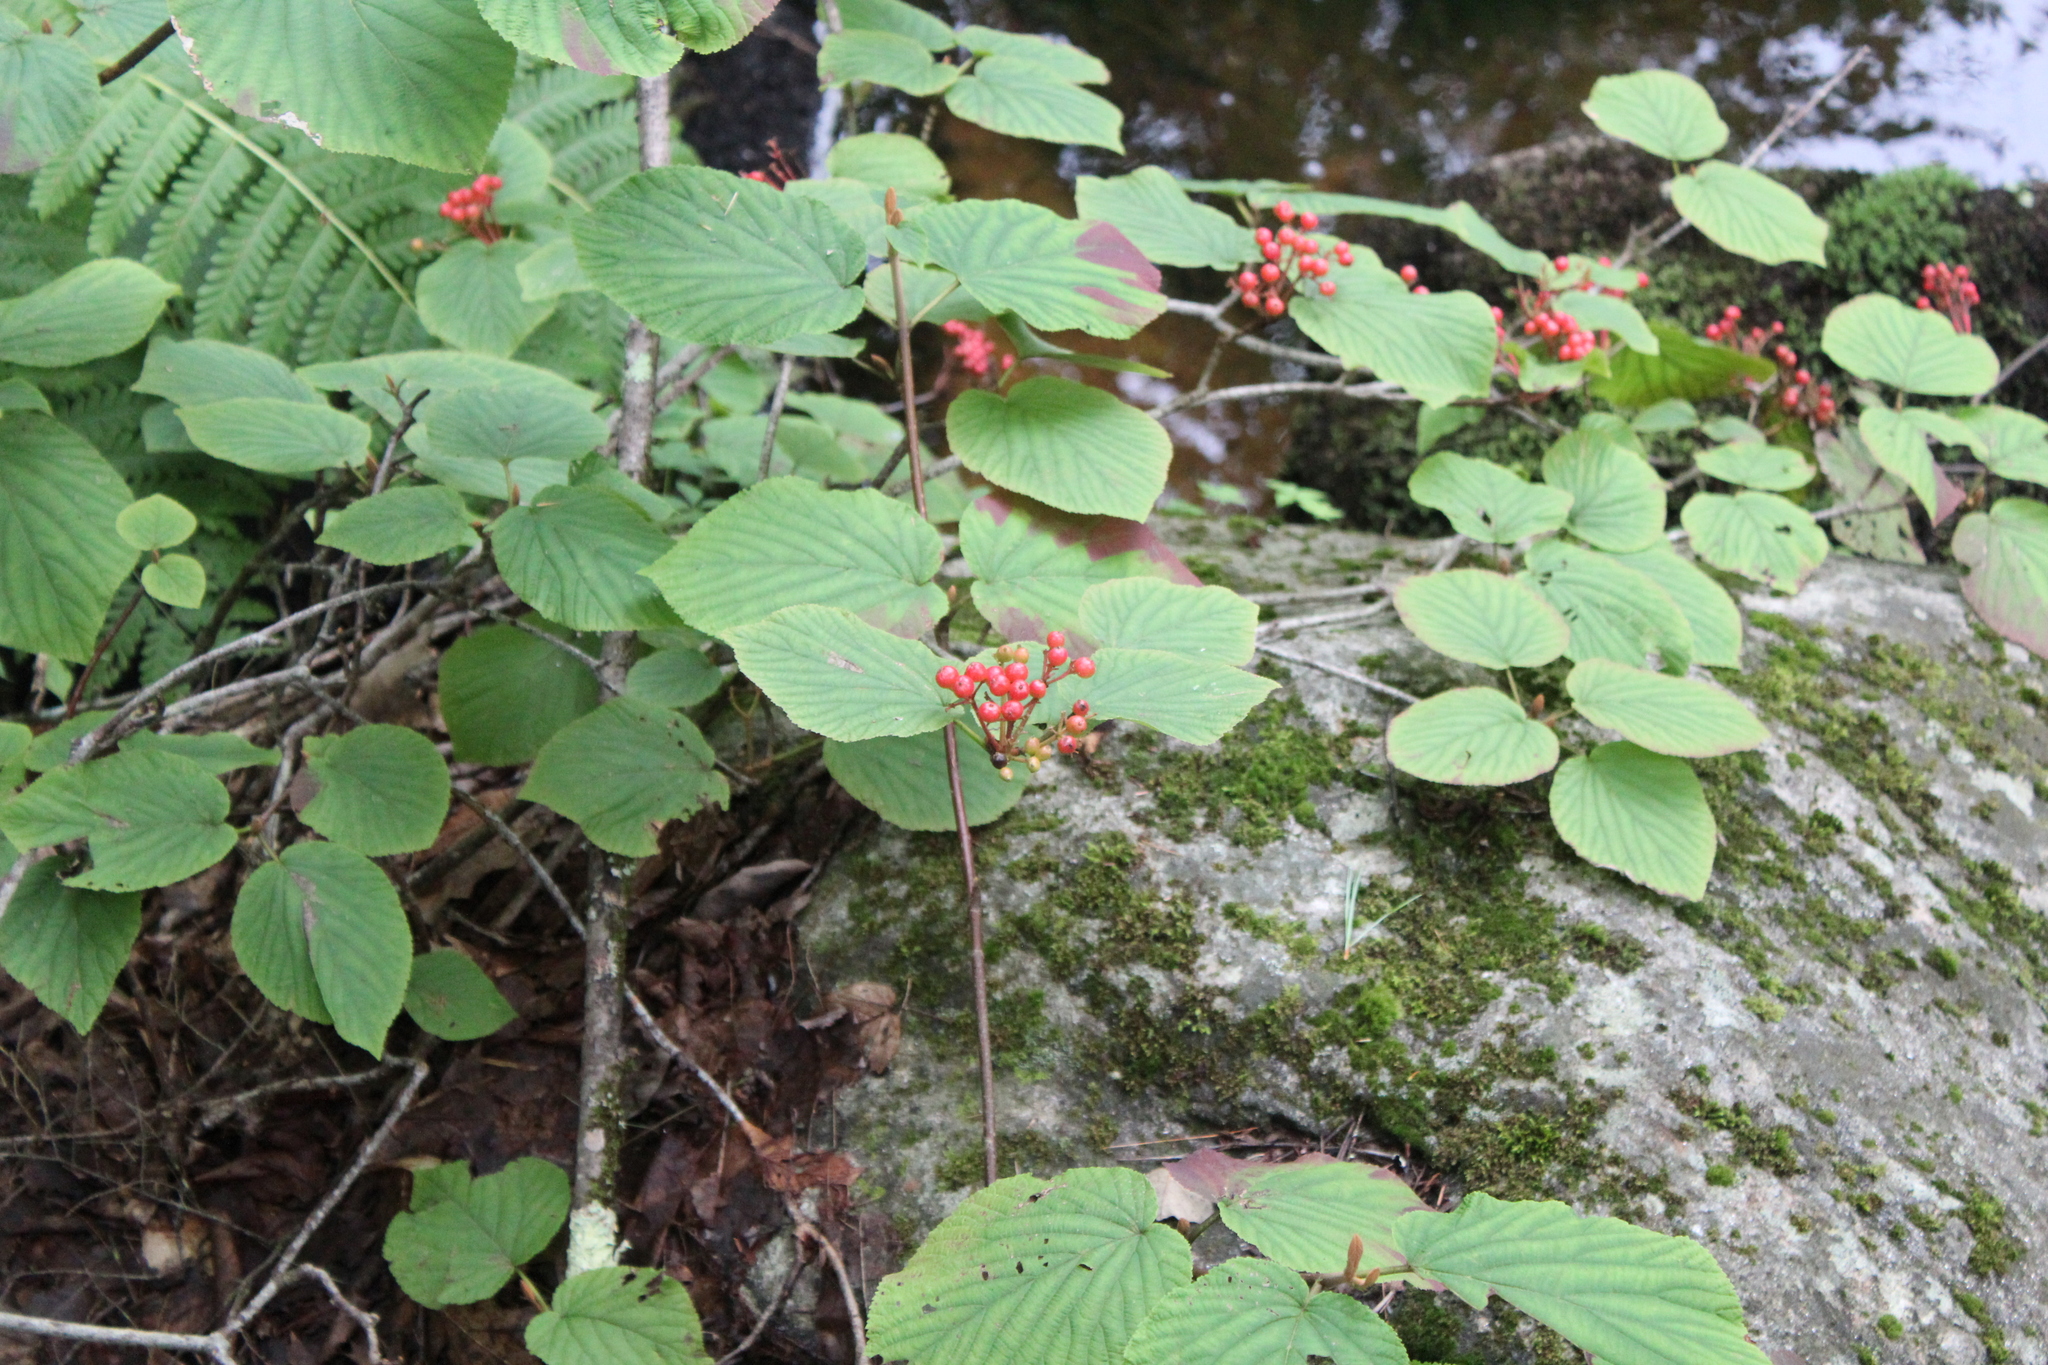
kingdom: Plantae
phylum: Tracheophyta
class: Magnoliopsida
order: Dipsacales
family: Viburnaceae
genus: Viburnum
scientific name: Viburnum lantanoides
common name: Hobblebush
